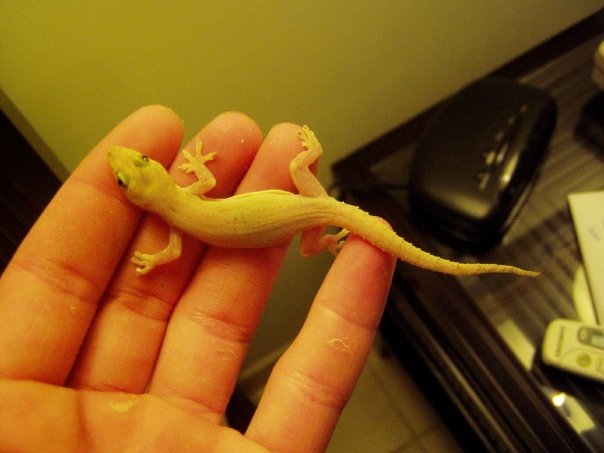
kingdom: Animalia
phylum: Chordata
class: Squamata
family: Gekkonidae
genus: Hemidactylus
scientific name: Hemidactylus frenatus
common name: Common house gecko
